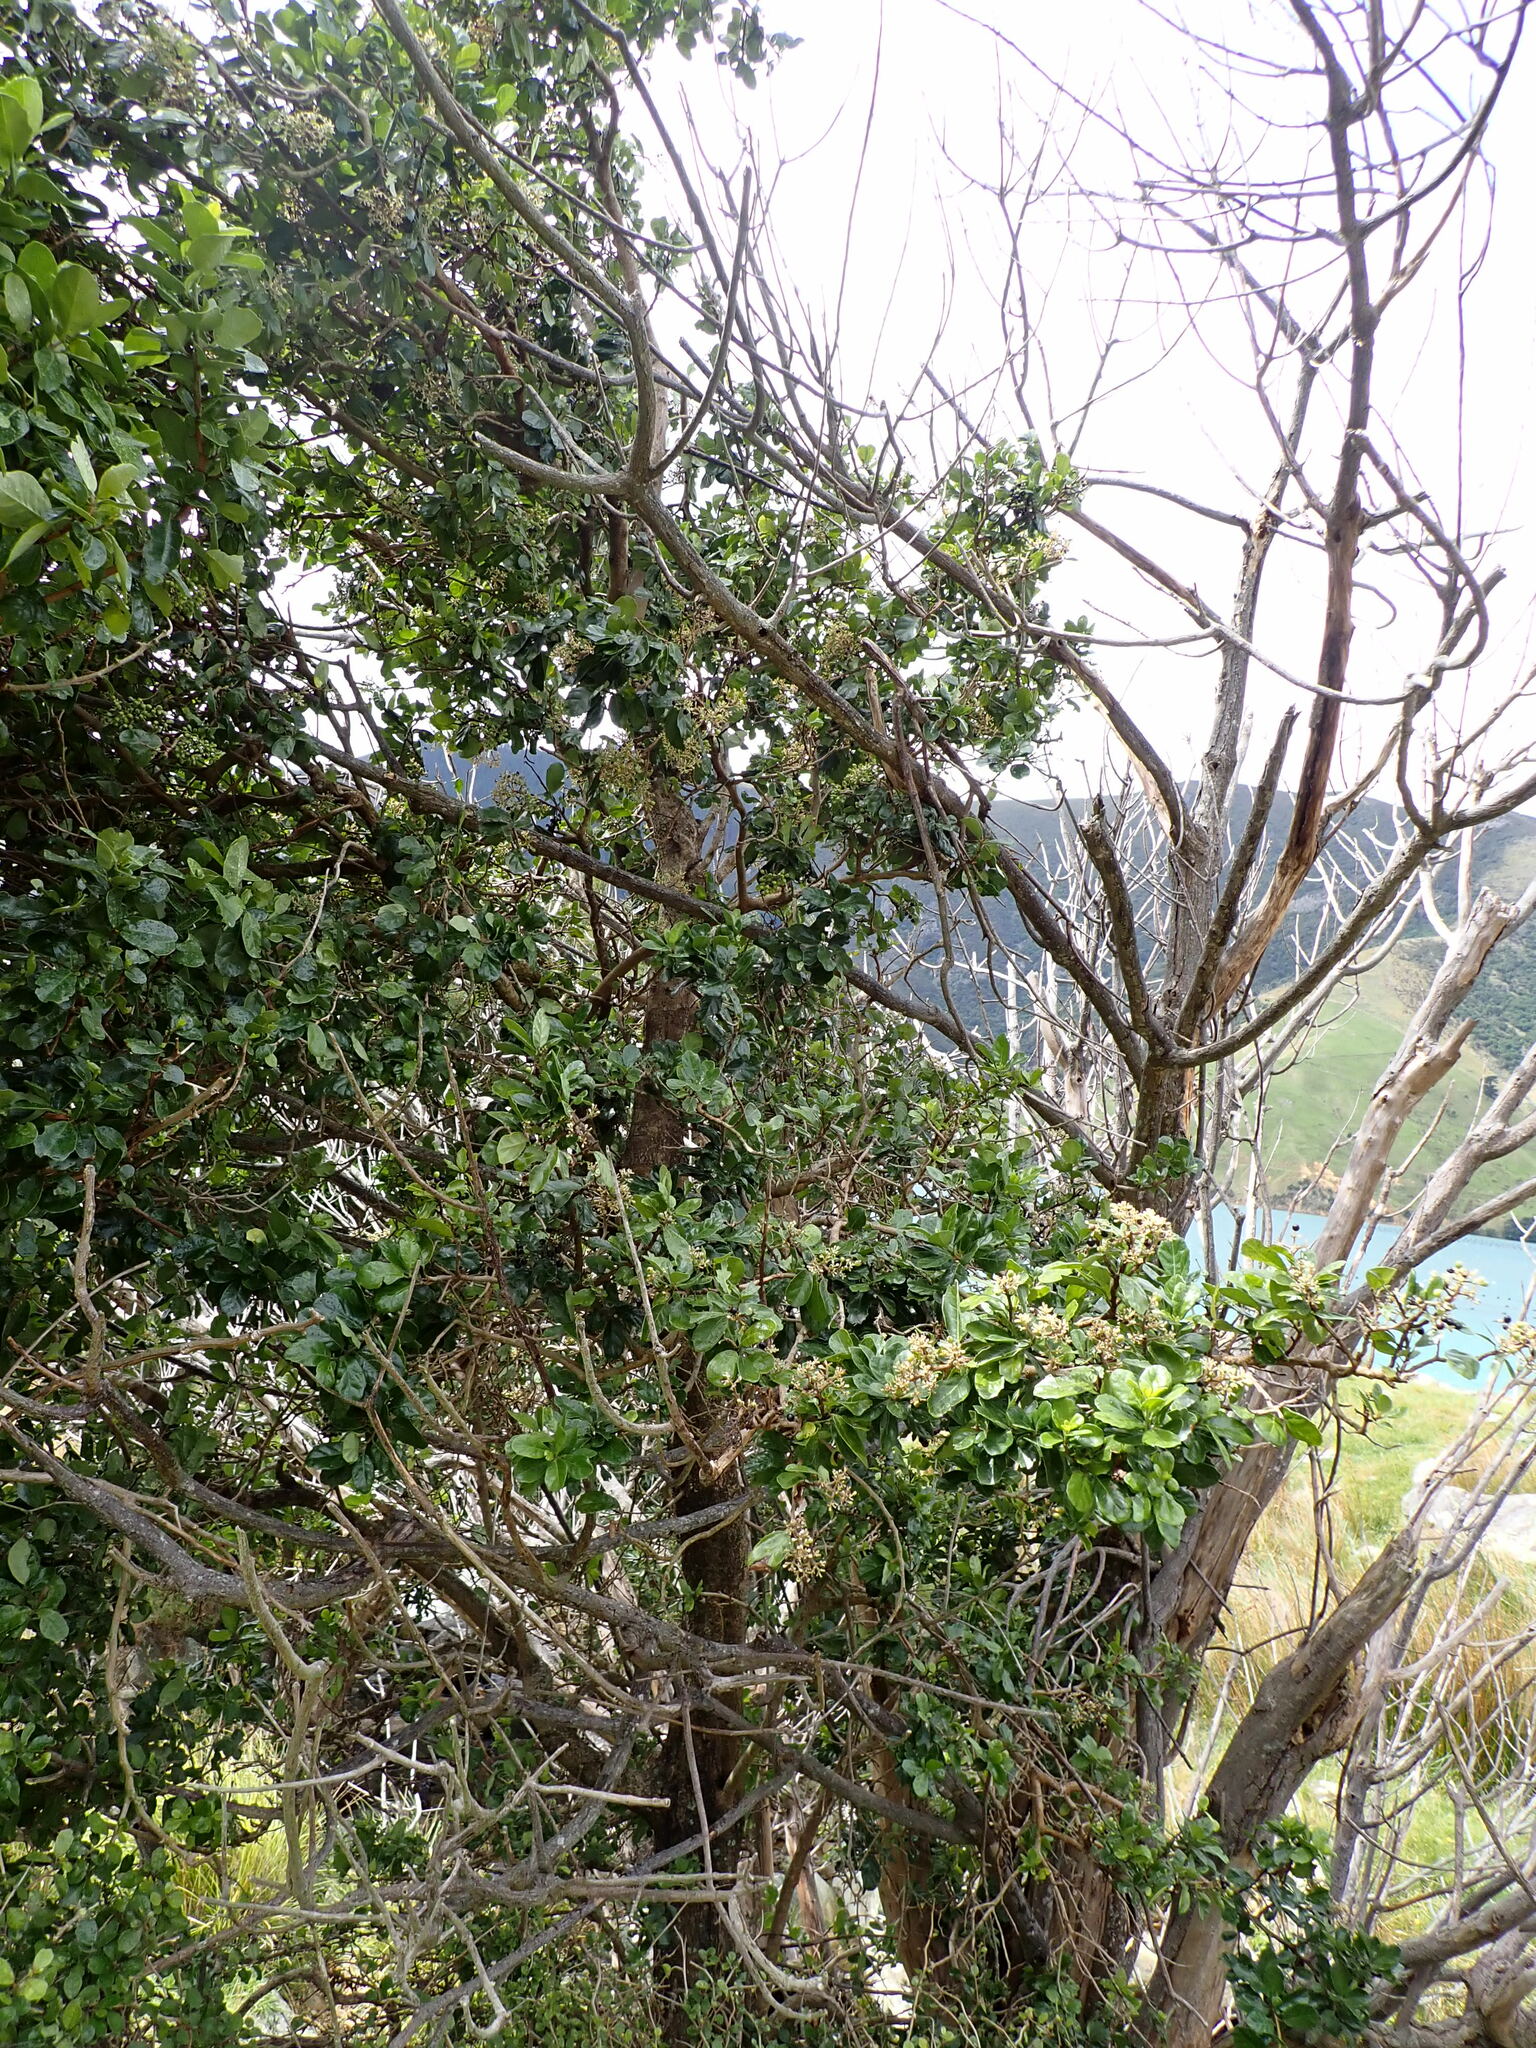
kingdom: Plantae
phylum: Tracheophyta
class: Magnoliopsida
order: Apiales
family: Pennantiaceae
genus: Pennantia
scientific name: Pennantia corymbosa
